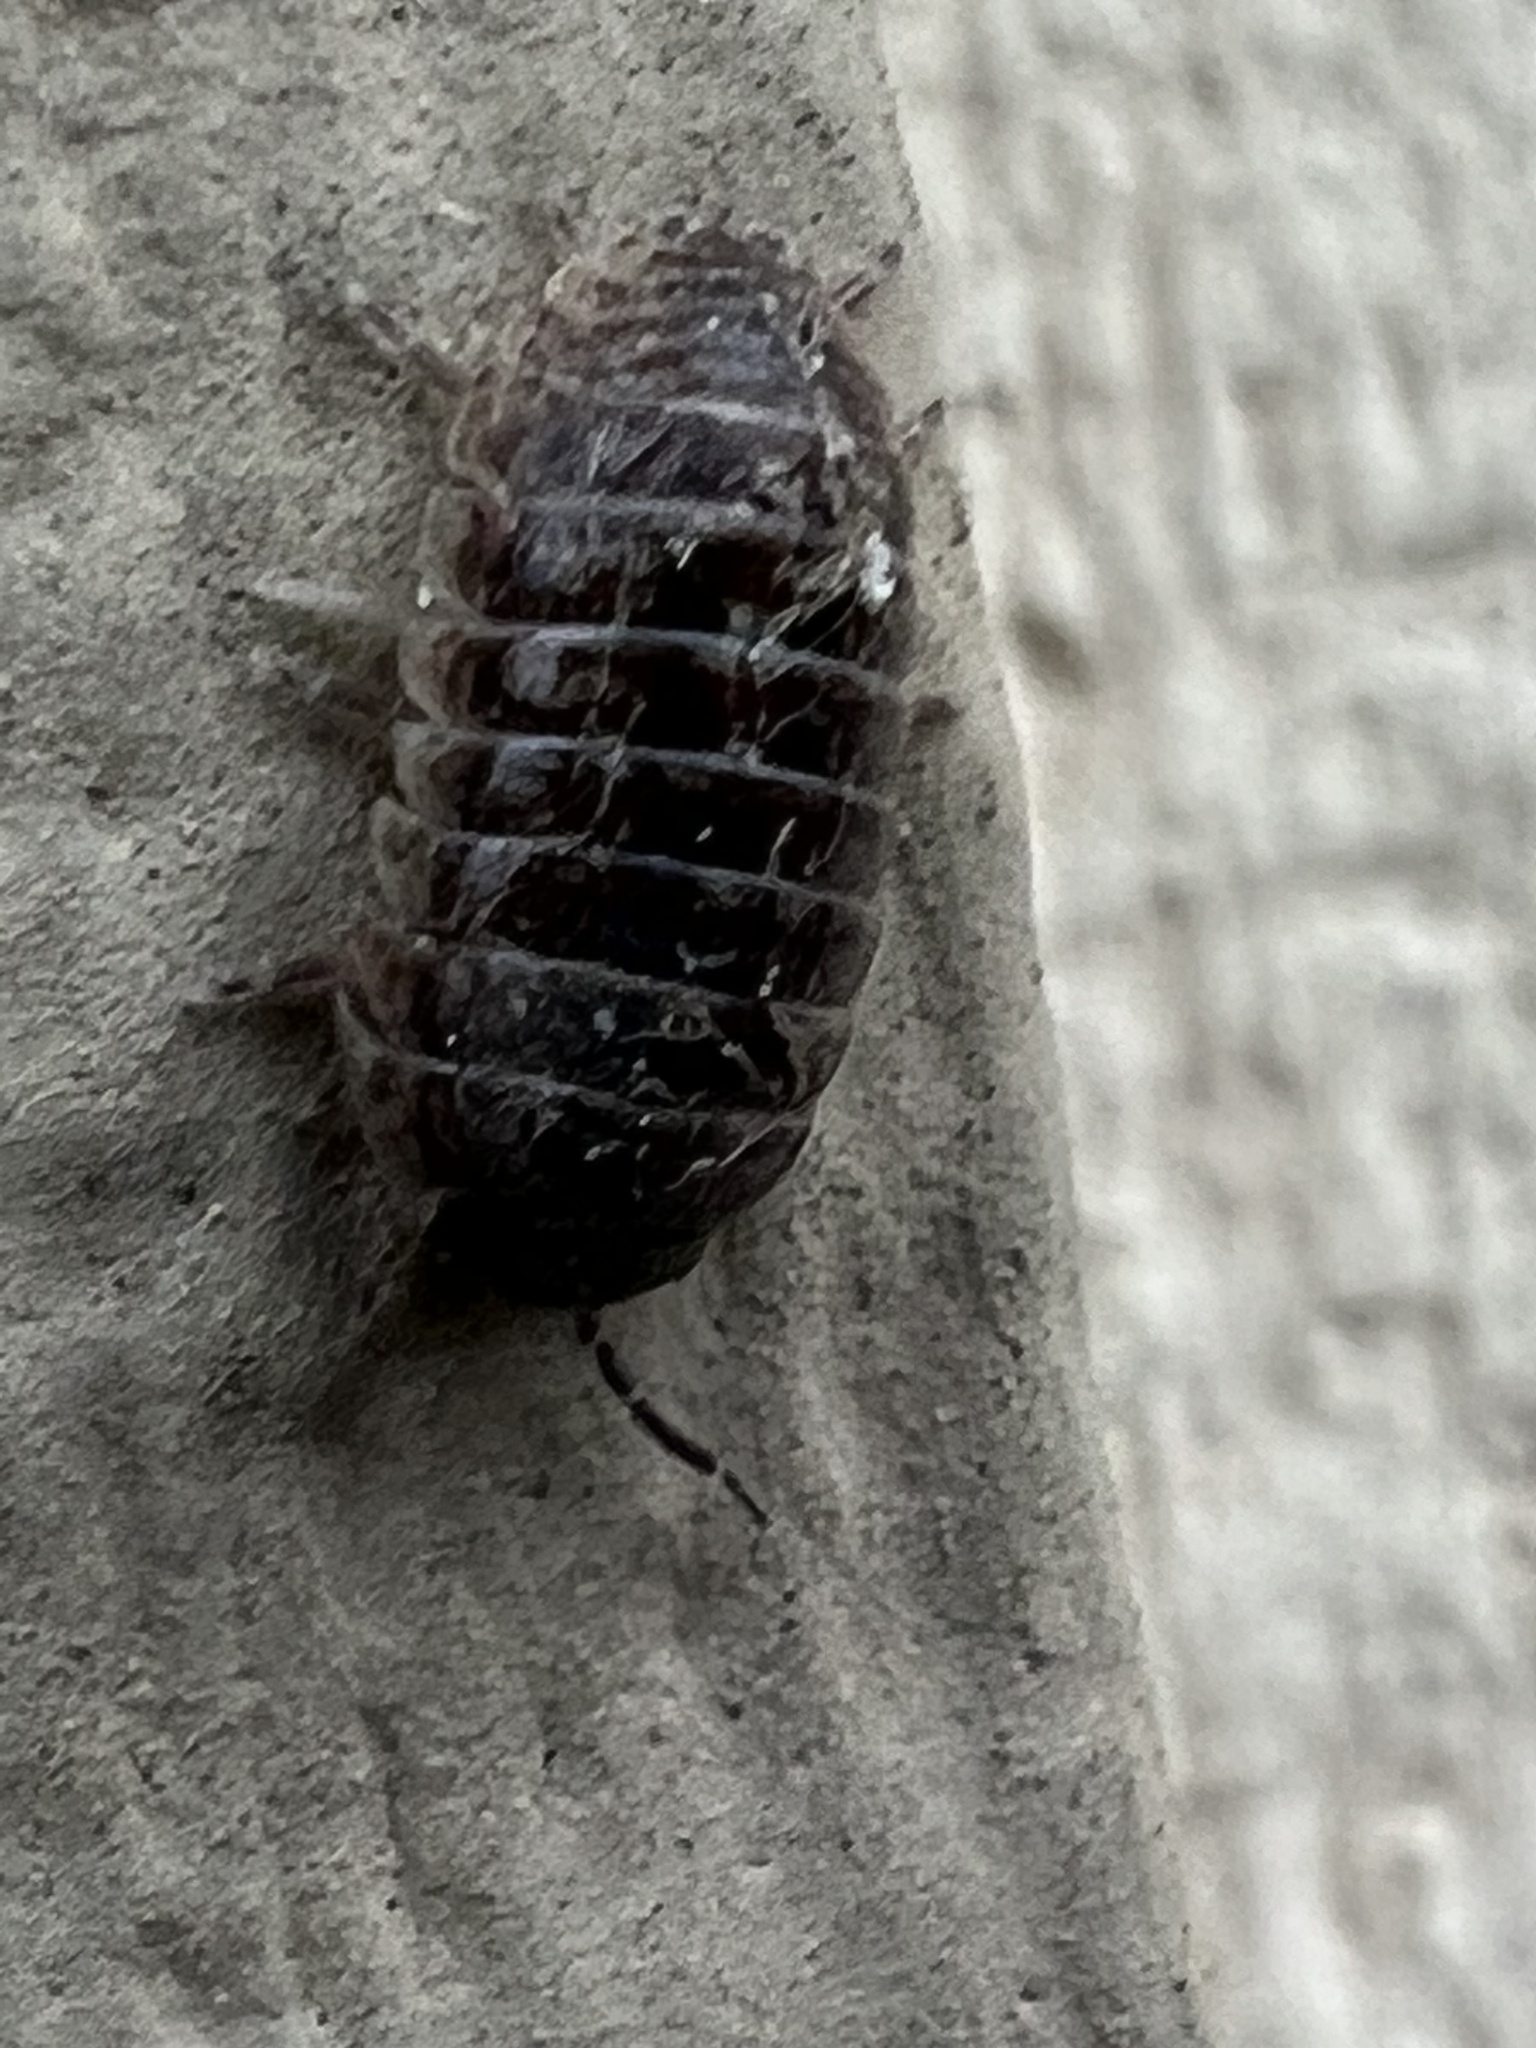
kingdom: Animalia
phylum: Arthropoda
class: Malacostraca
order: Isopoda
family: Armadillidiidae
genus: Armadillidium
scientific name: Armadillidium vulgare
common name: Common pill woodlouse
